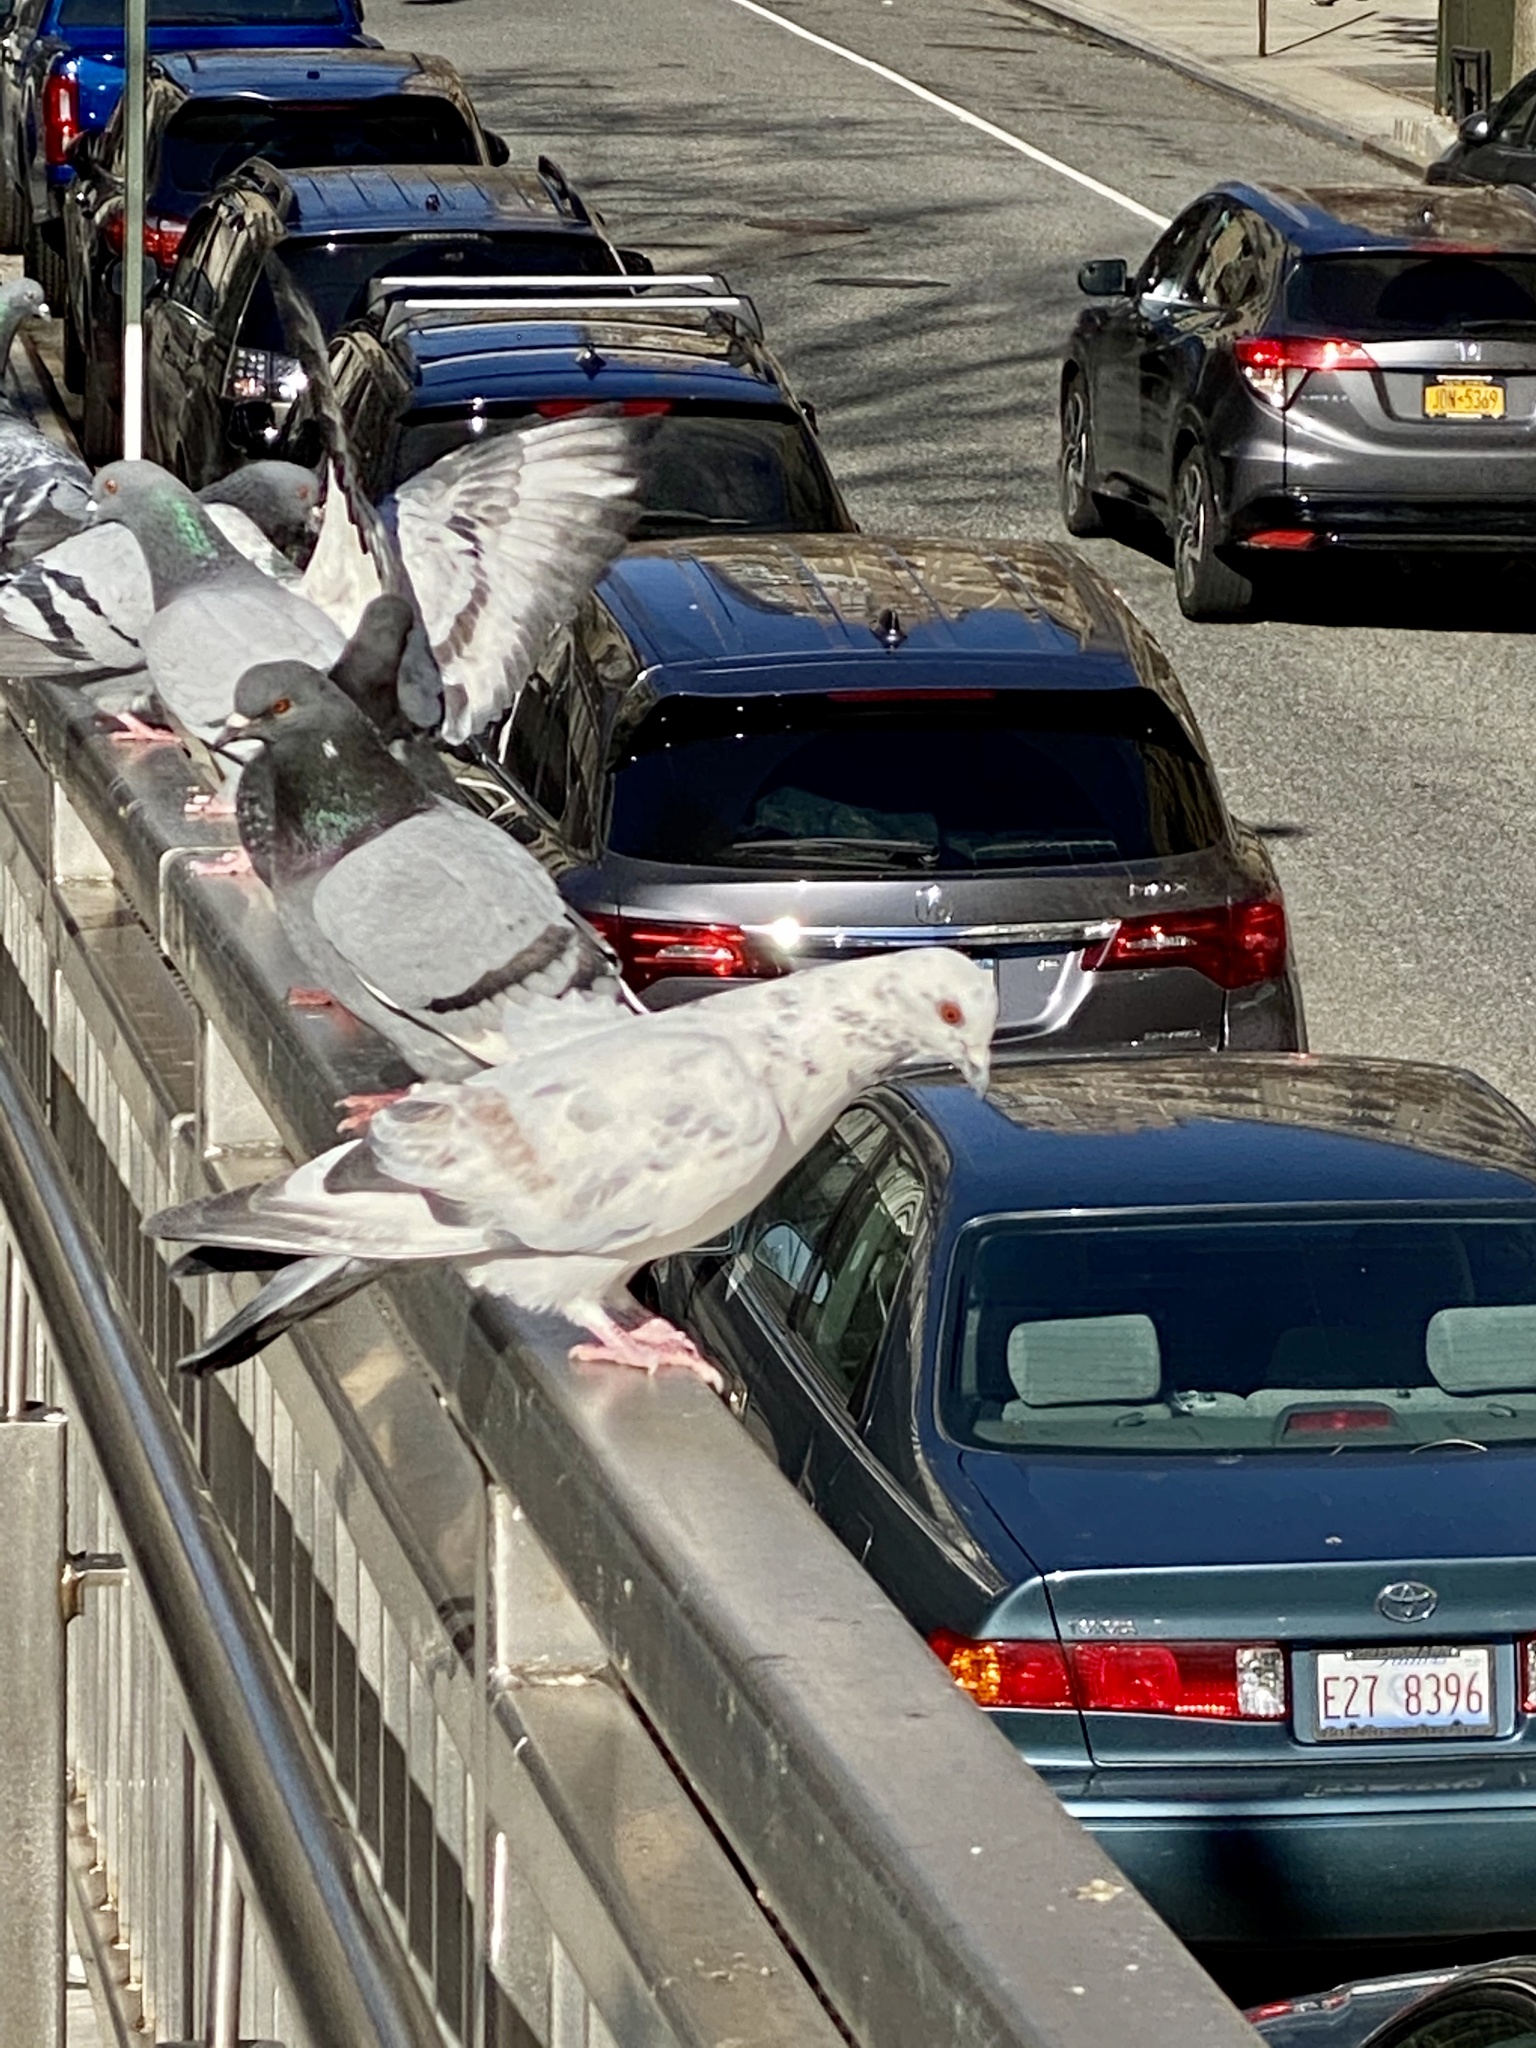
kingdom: Animalia
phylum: Chordata
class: Aves
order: Columbiformes
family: Columbidae
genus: Columba
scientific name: Columba livia
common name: Rock pigeon
